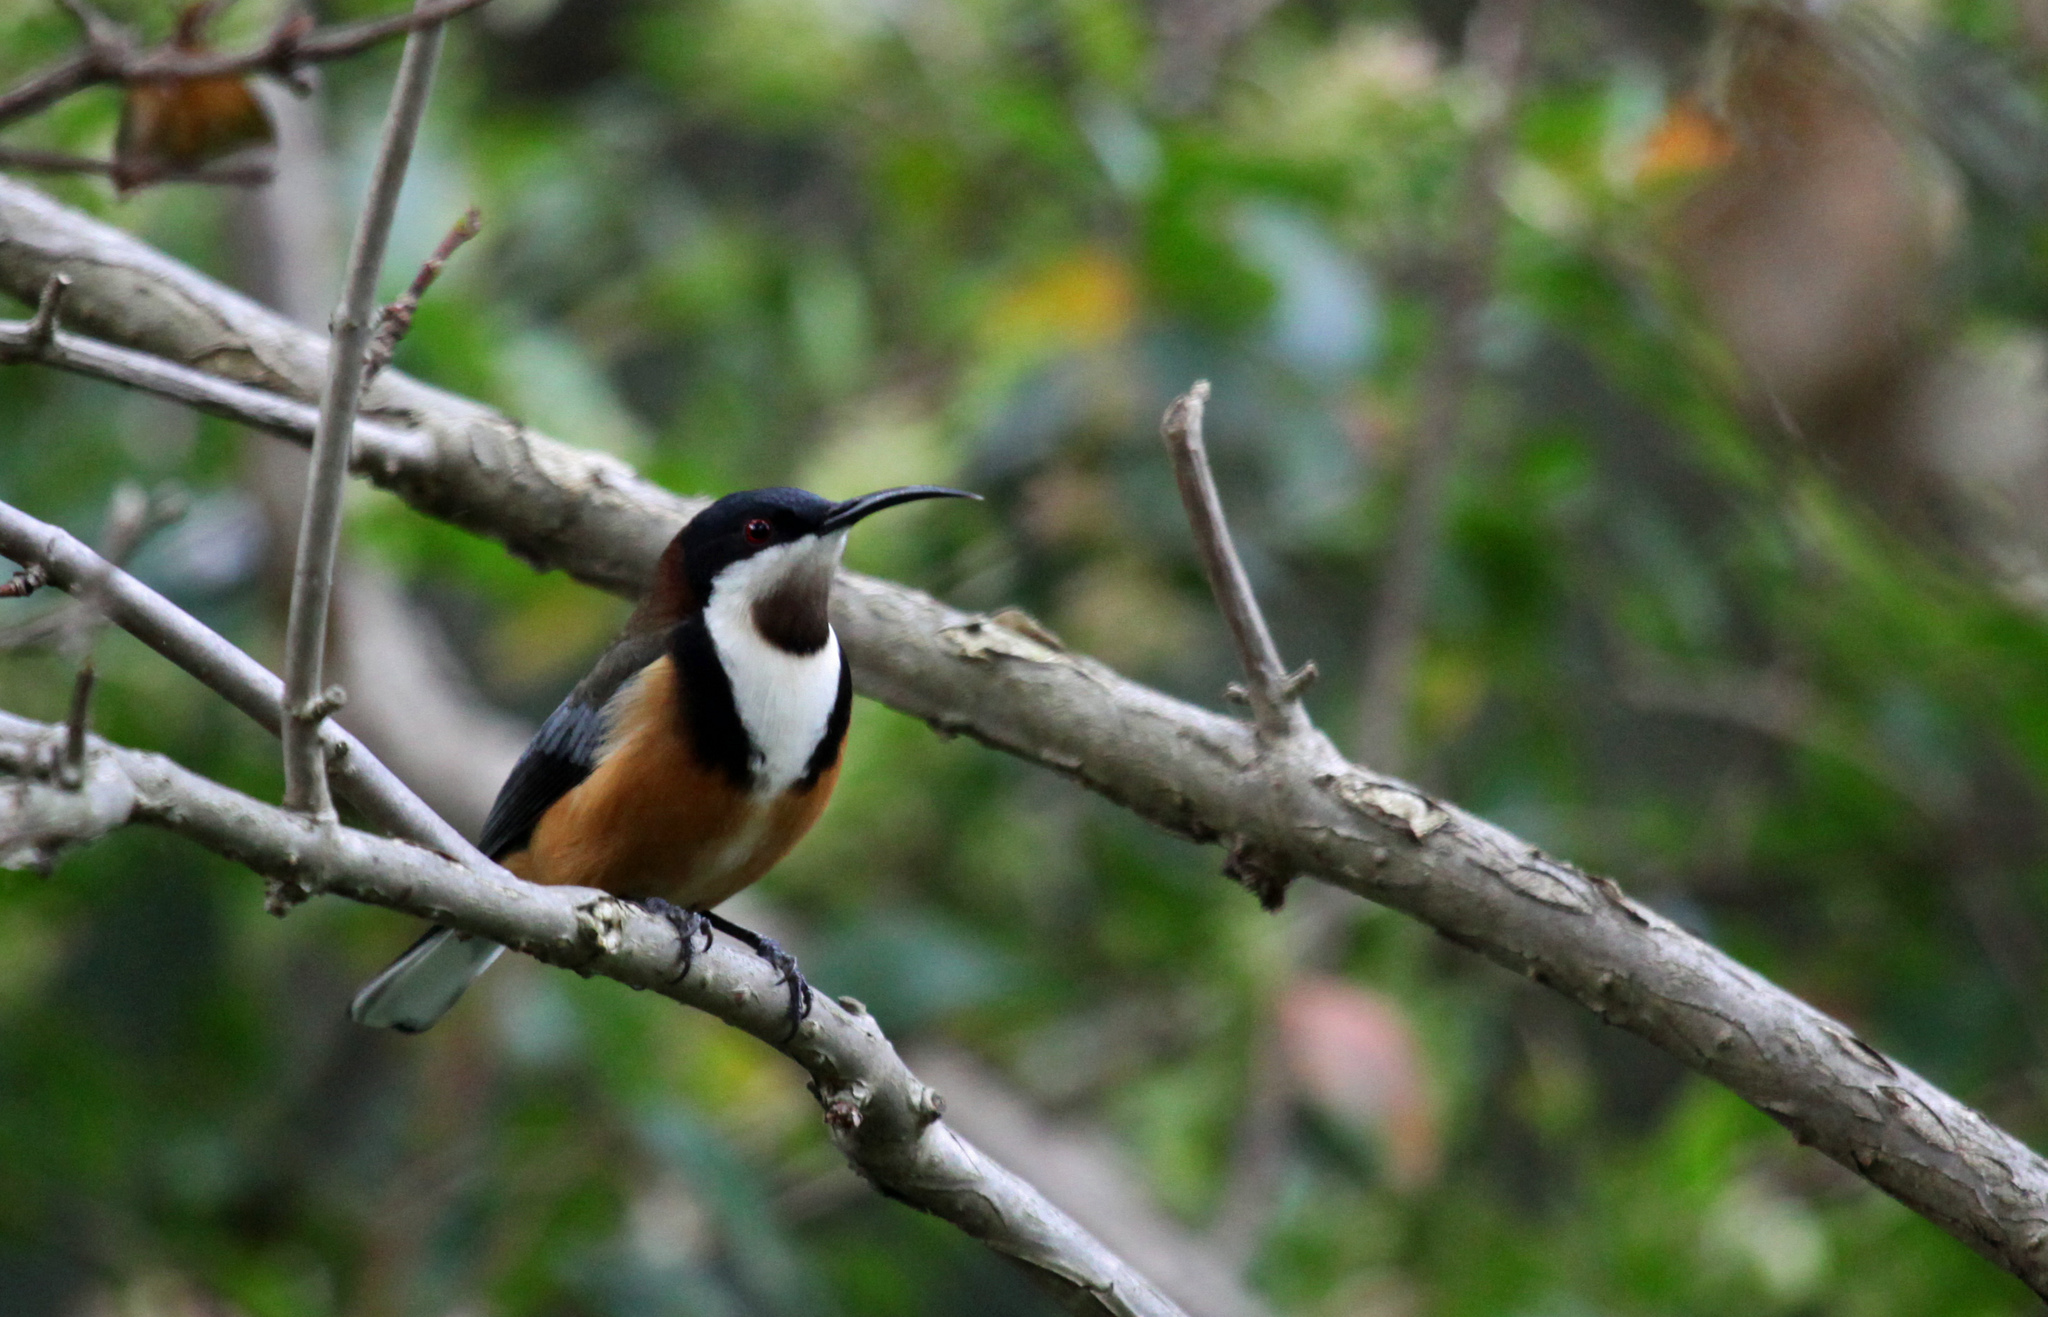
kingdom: Animalia
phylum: Chordata
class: Aves
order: Passeriformes
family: Meliphagidae
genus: Acanthorhynchus
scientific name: Acanthorhynchus tenuirostris
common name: Eastern spinebill
